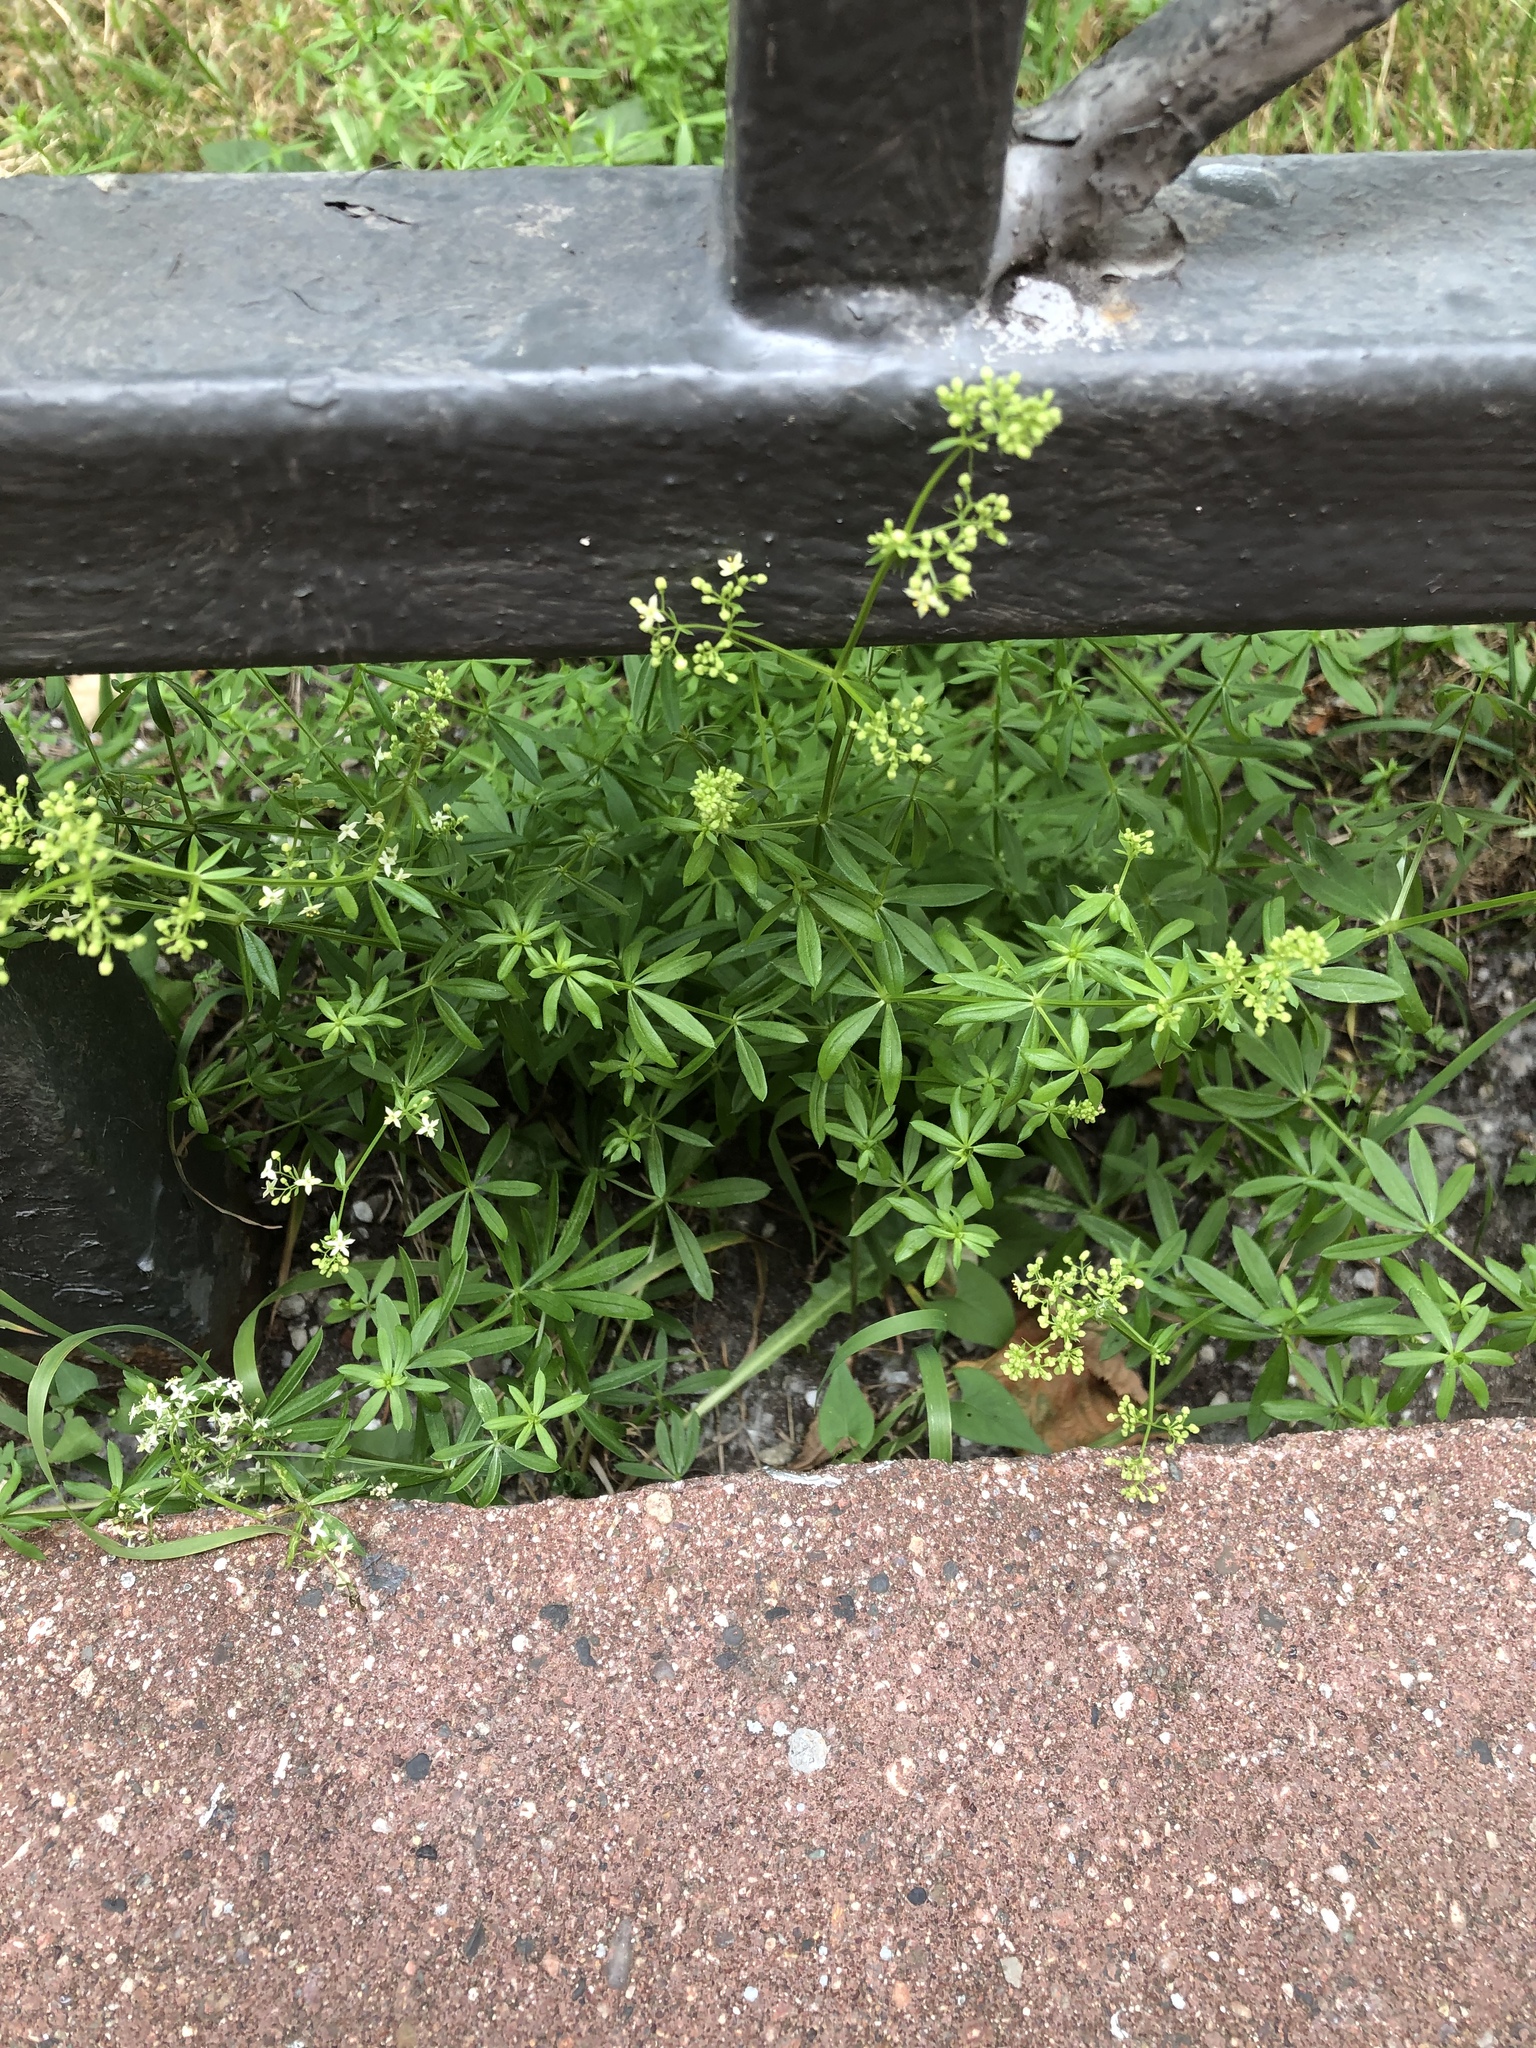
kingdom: Plantae
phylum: Tracheophyta
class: Magnoliopsida
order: Gentianales
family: Rubiaceae
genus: Galium
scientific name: Galium mollugo
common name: Hedge bedstraw
